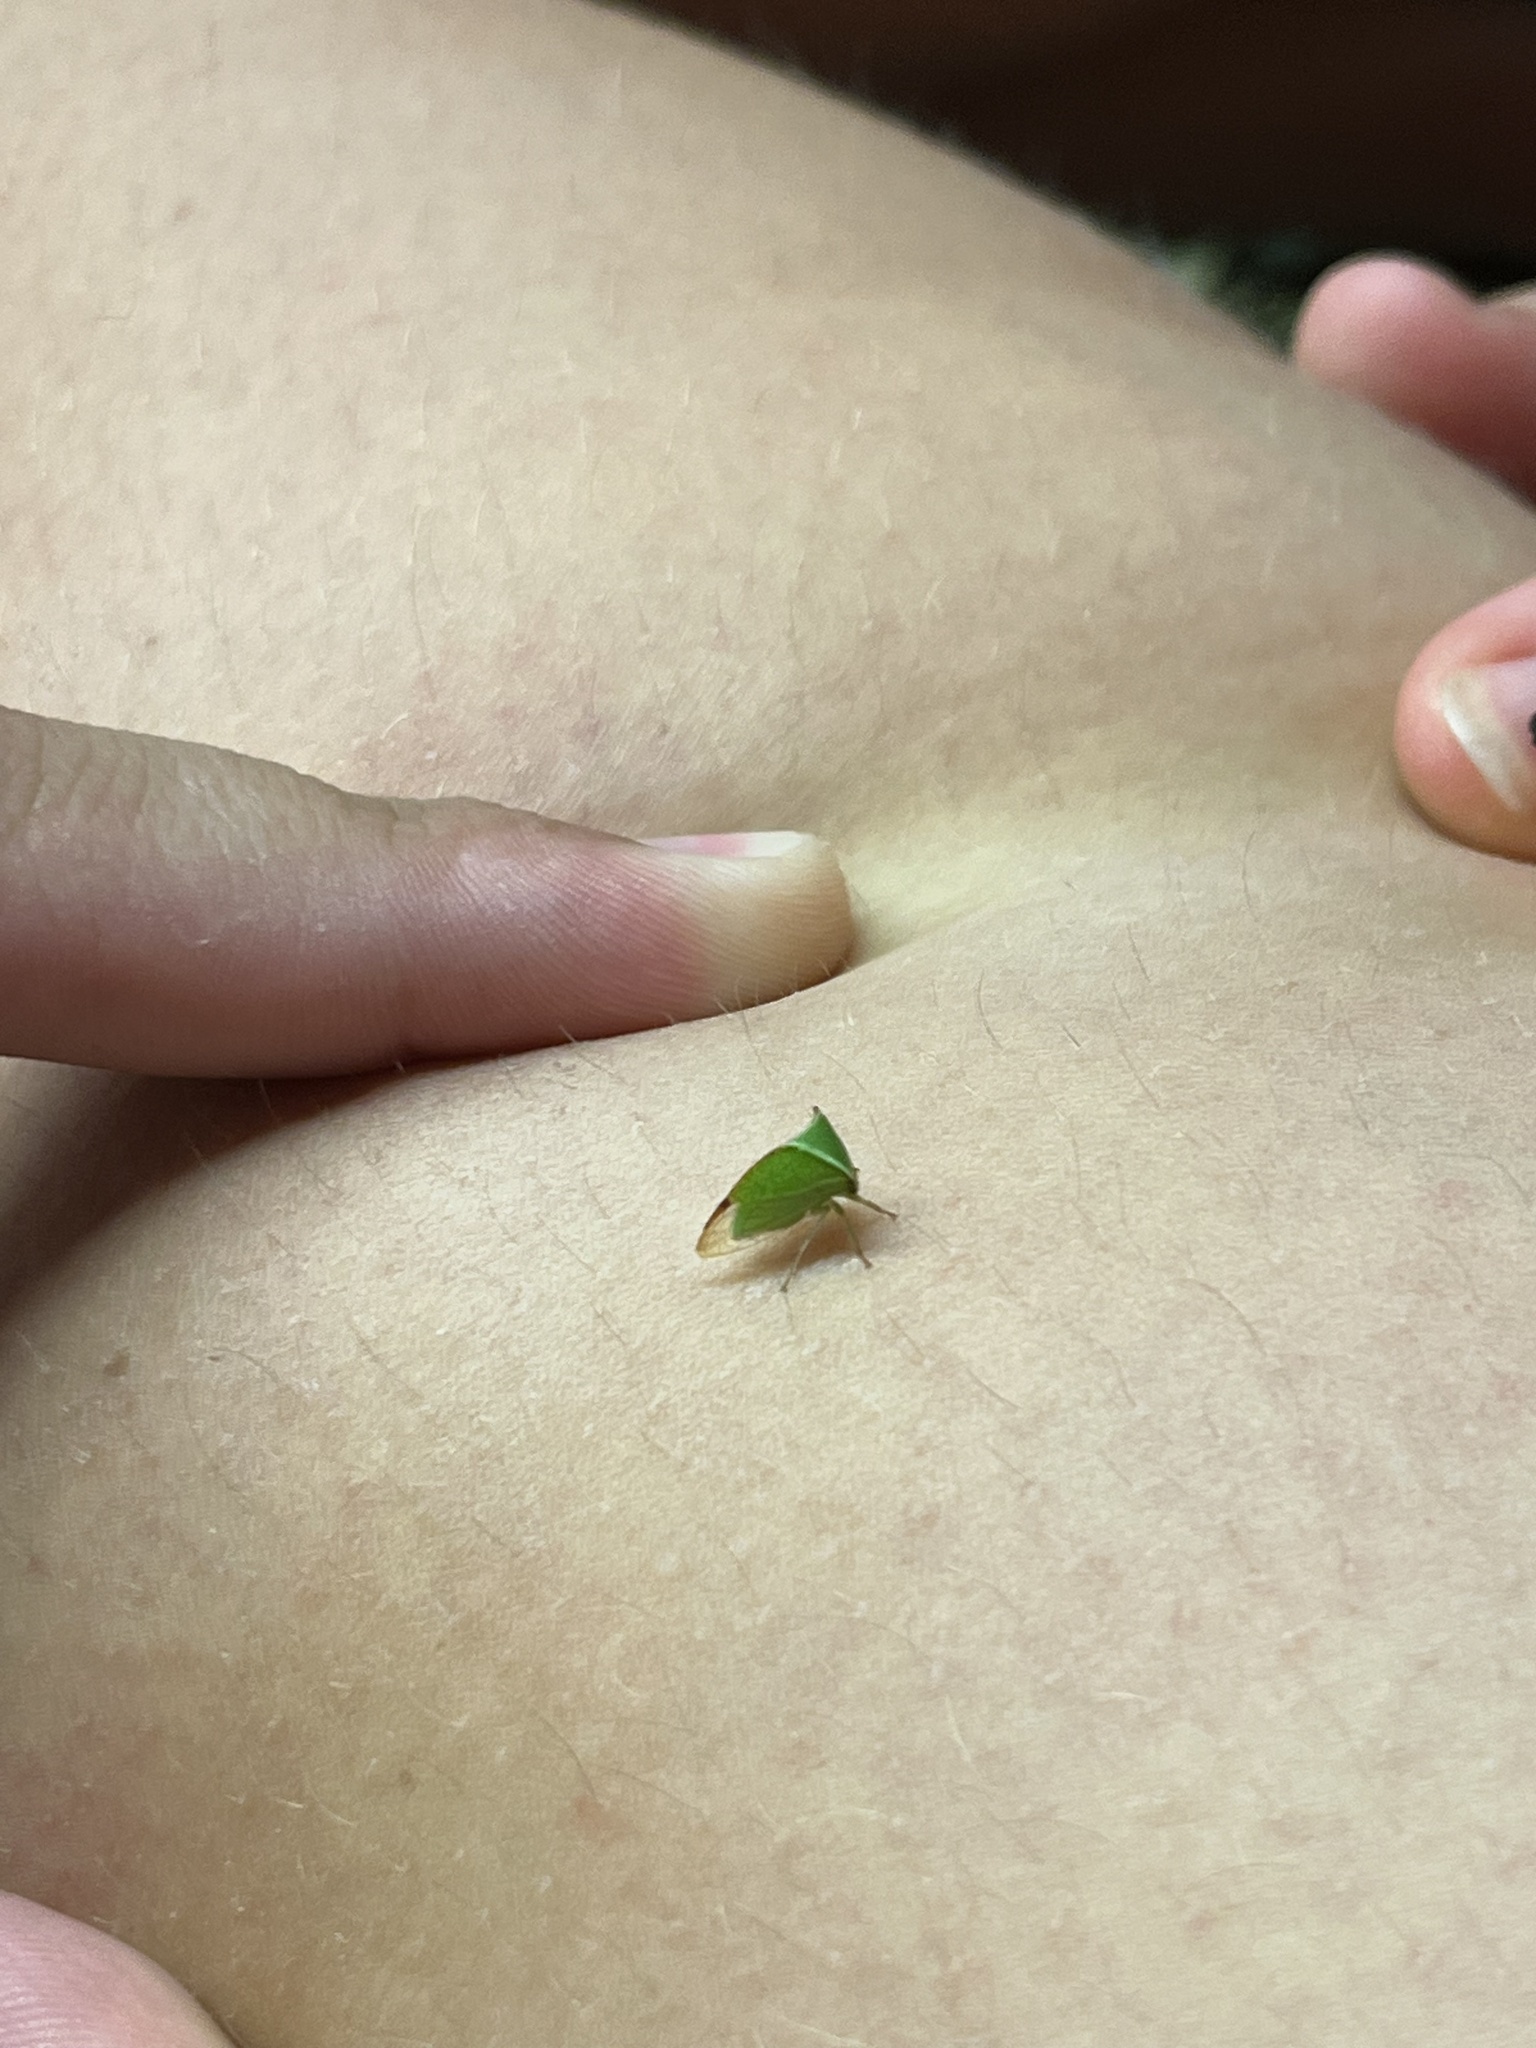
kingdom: Animalia
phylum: Arthropoda
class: Insecta
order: Hemiptera
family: Membracidae
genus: Stictocephala
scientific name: Stictocephala bisonia
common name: American buffalo treehopper
